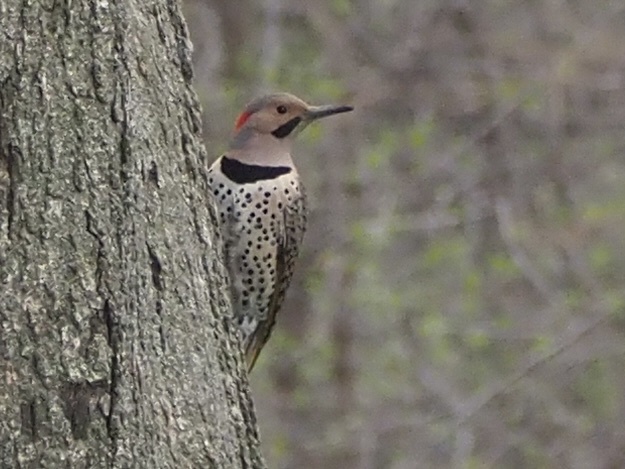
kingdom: Animalia
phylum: Chordata
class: Aves
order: Piciformes
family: Picidae
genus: Colaptes
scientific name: Colaptes auratus
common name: Northern flicker
